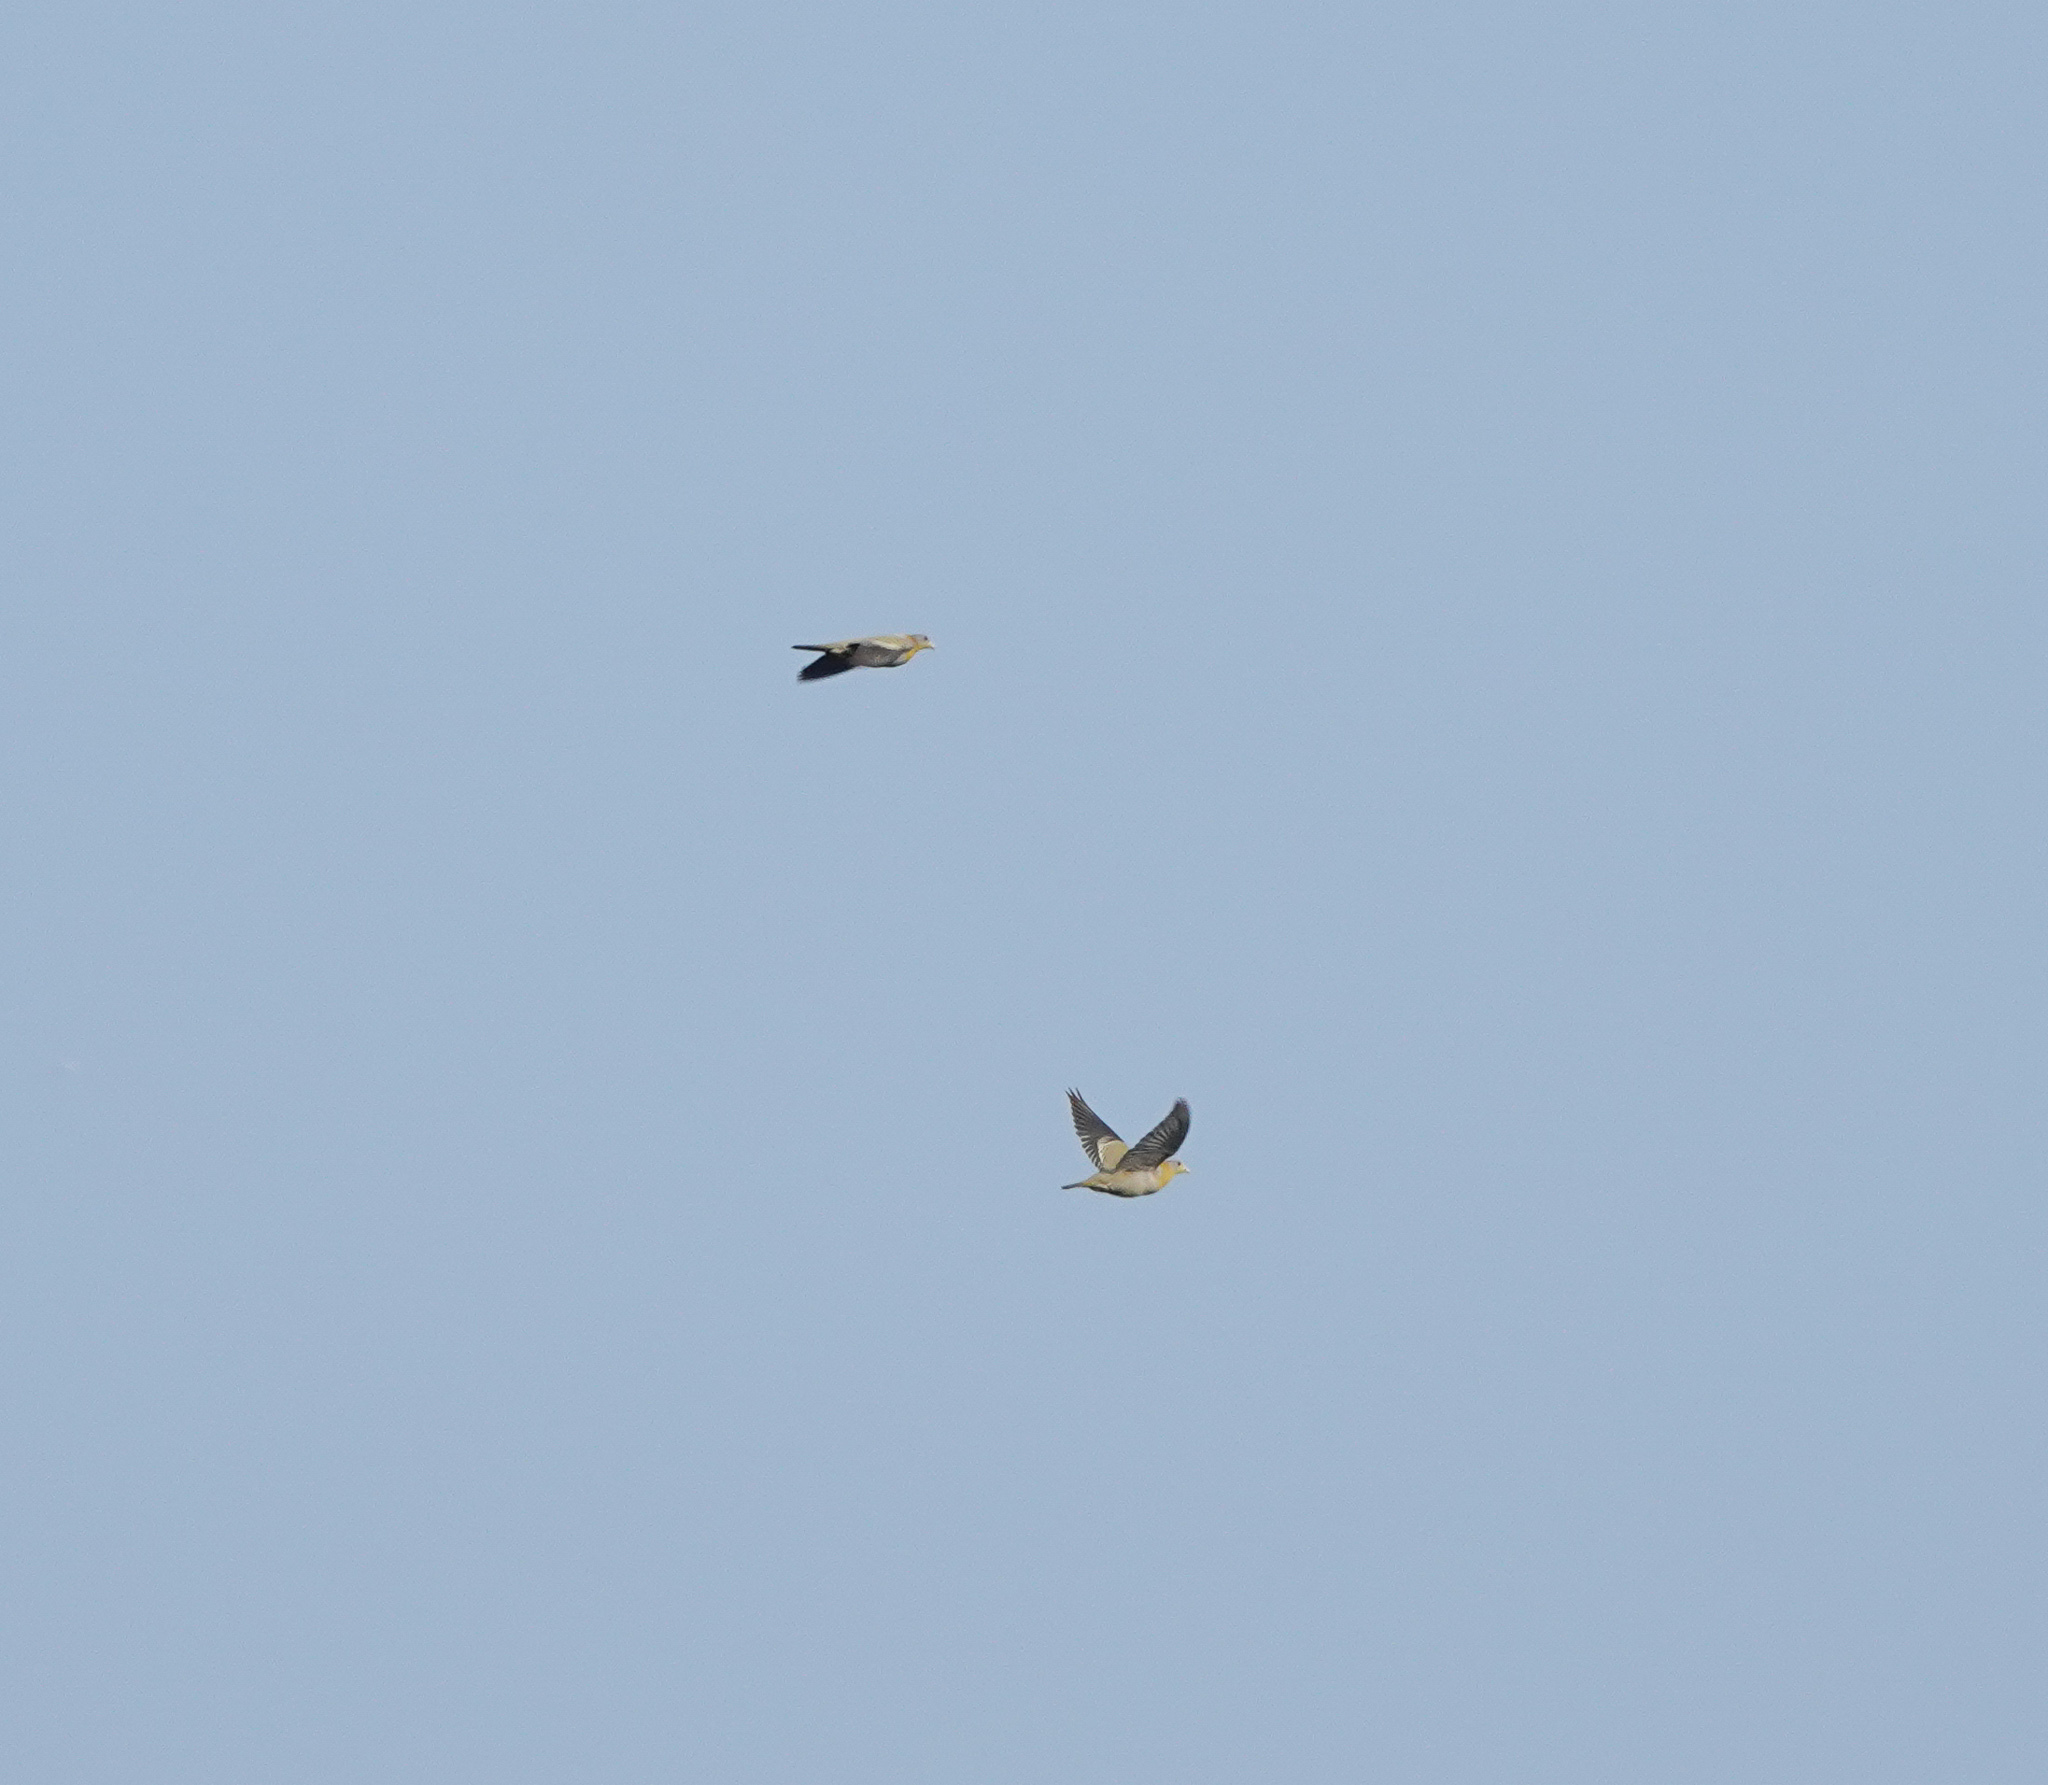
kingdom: Animalia
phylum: Chordata
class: Aves
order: Columbiformes
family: Columbidae
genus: Treron
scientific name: Treron phoenicopterus
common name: Yellow-footed green pigeon
